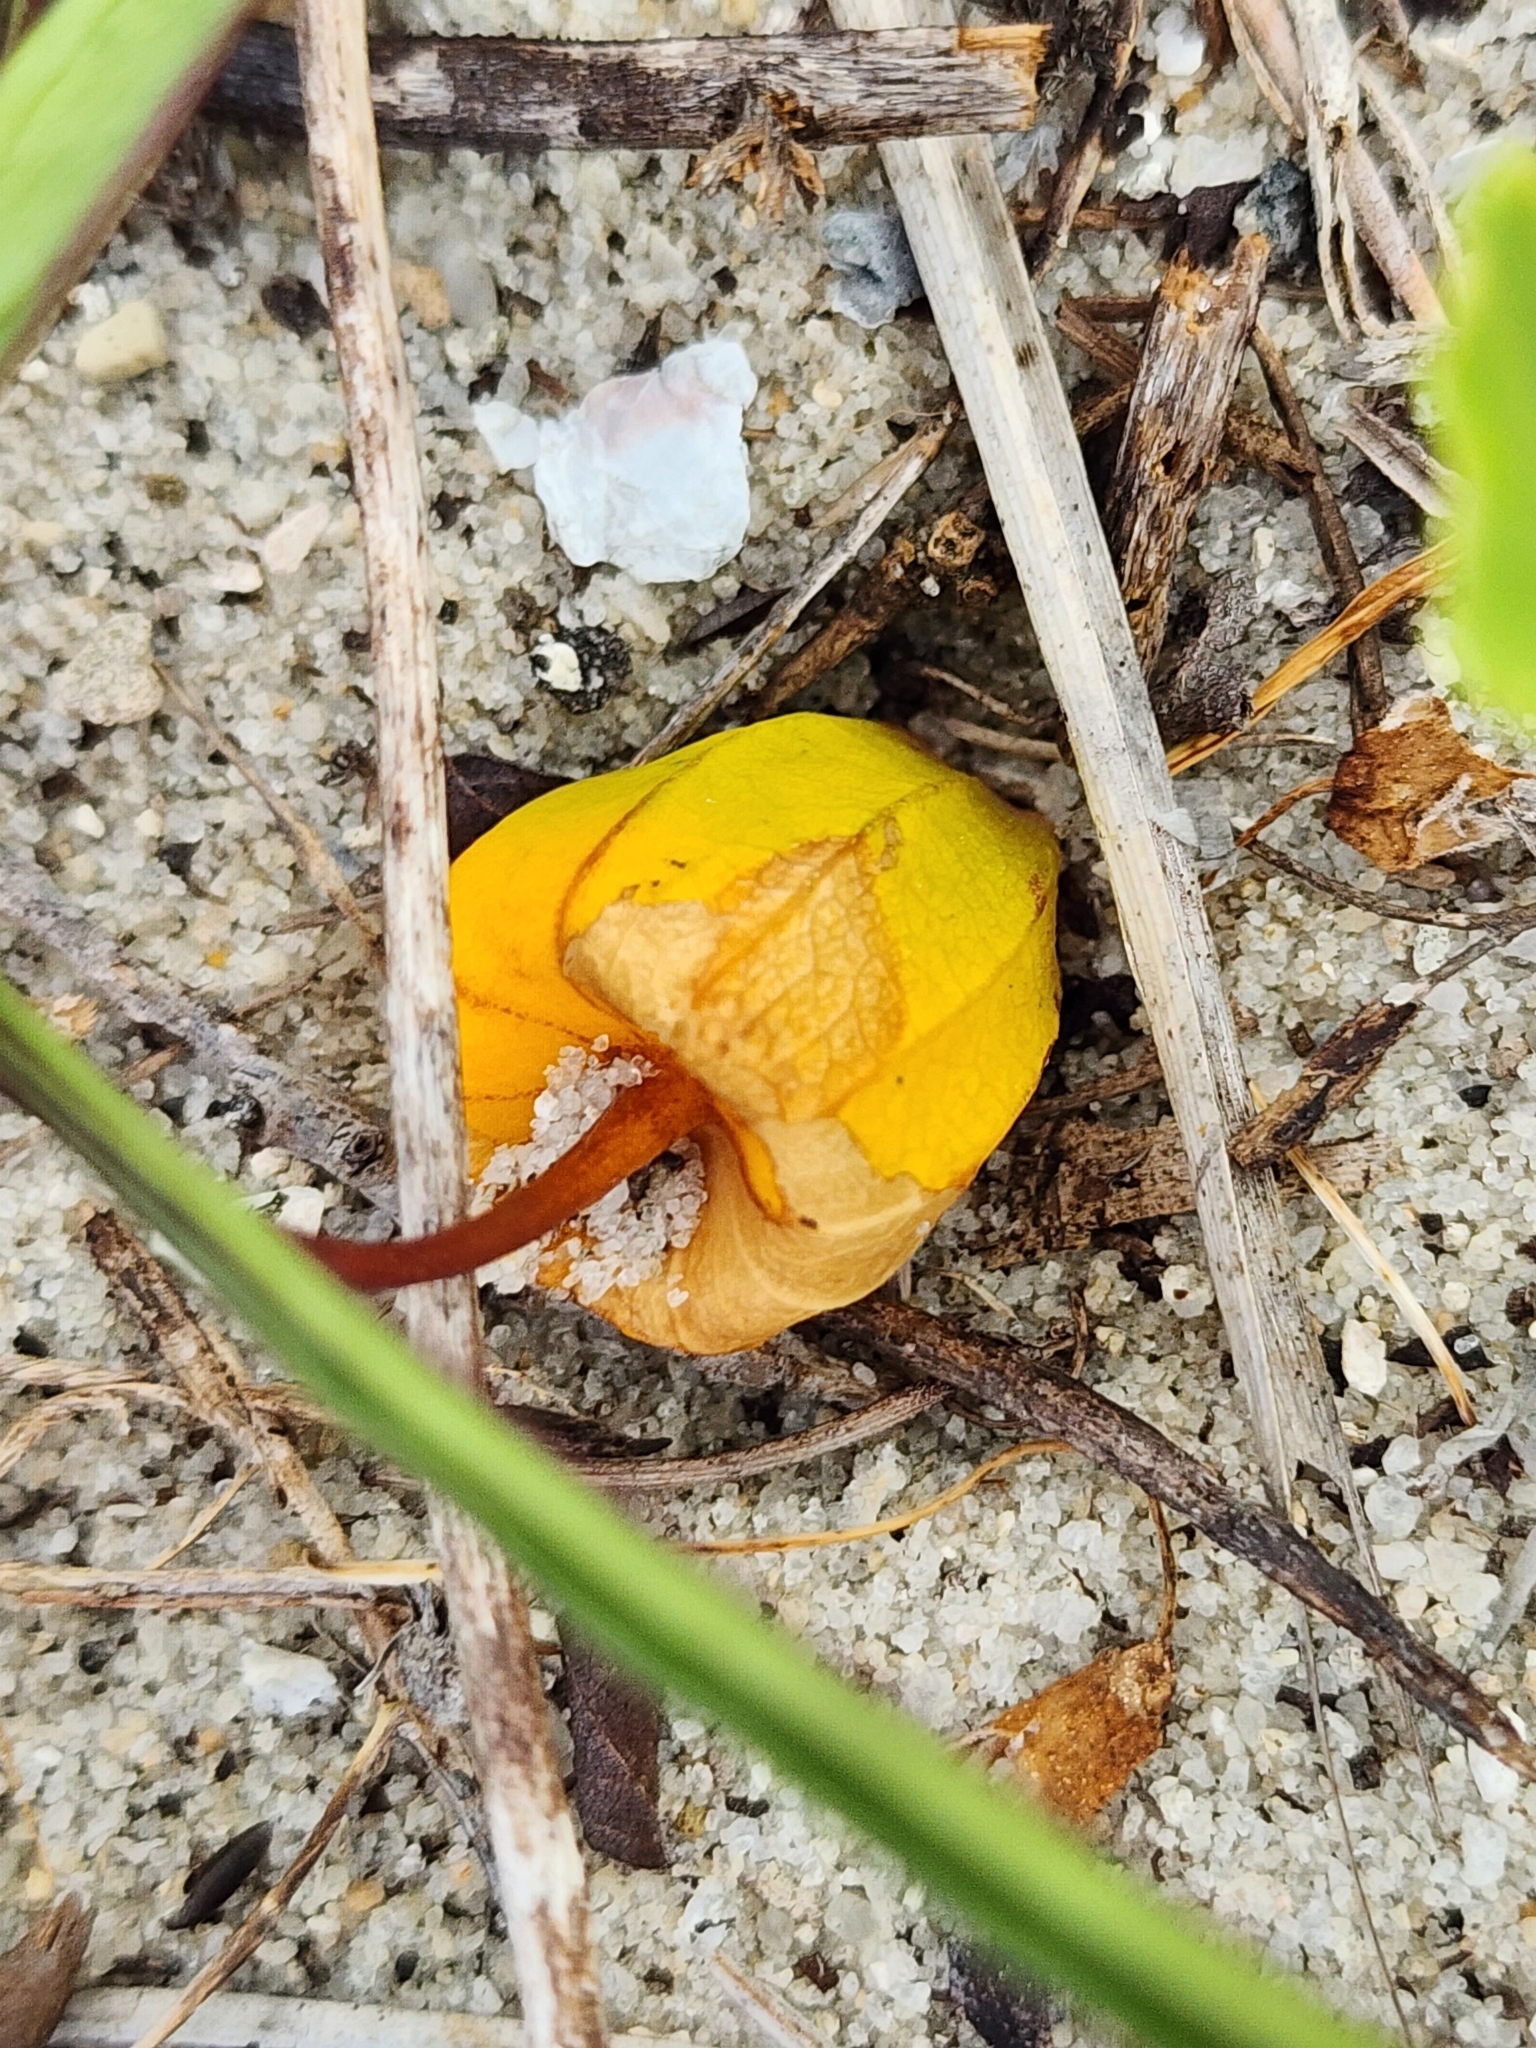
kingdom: Plantae
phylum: Tracheophyta
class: Magnoliopsida
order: Solanales
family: Solanaceae
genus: Physalis
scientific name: Physalis angustifolia
